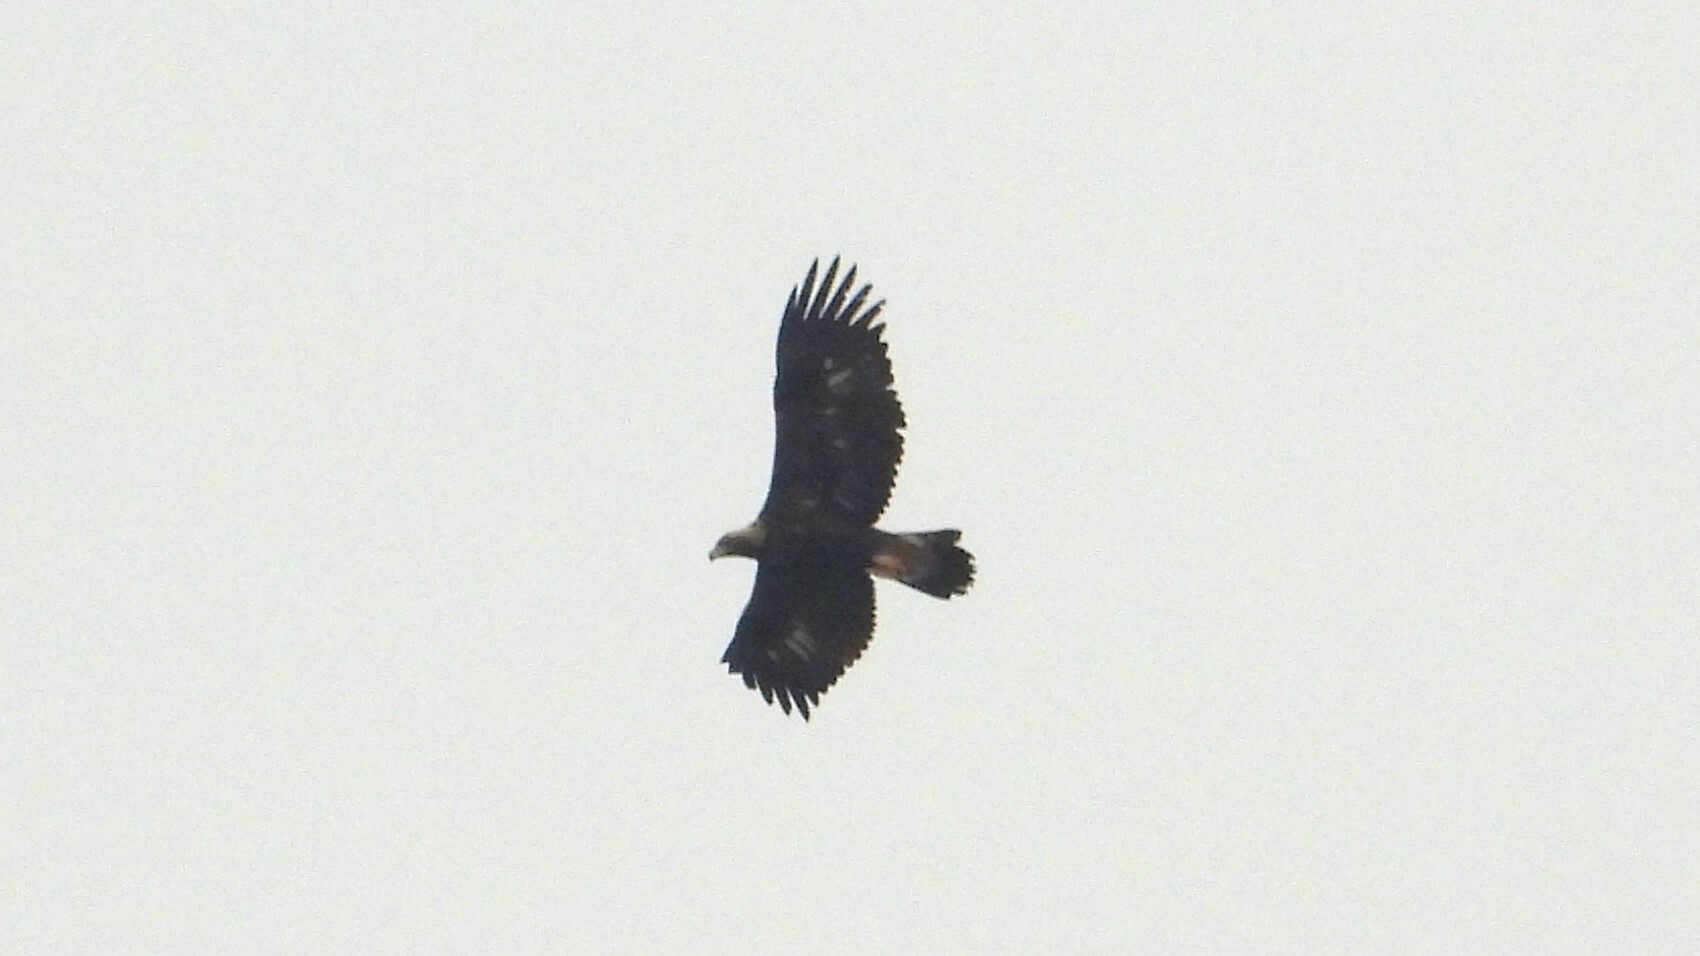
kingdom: Animalia
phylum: Chordata
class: Aves
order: Accipitriformes
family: Accipitridae
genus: Aquila
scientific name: Aquila chrysaetos
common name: Golden eagle
